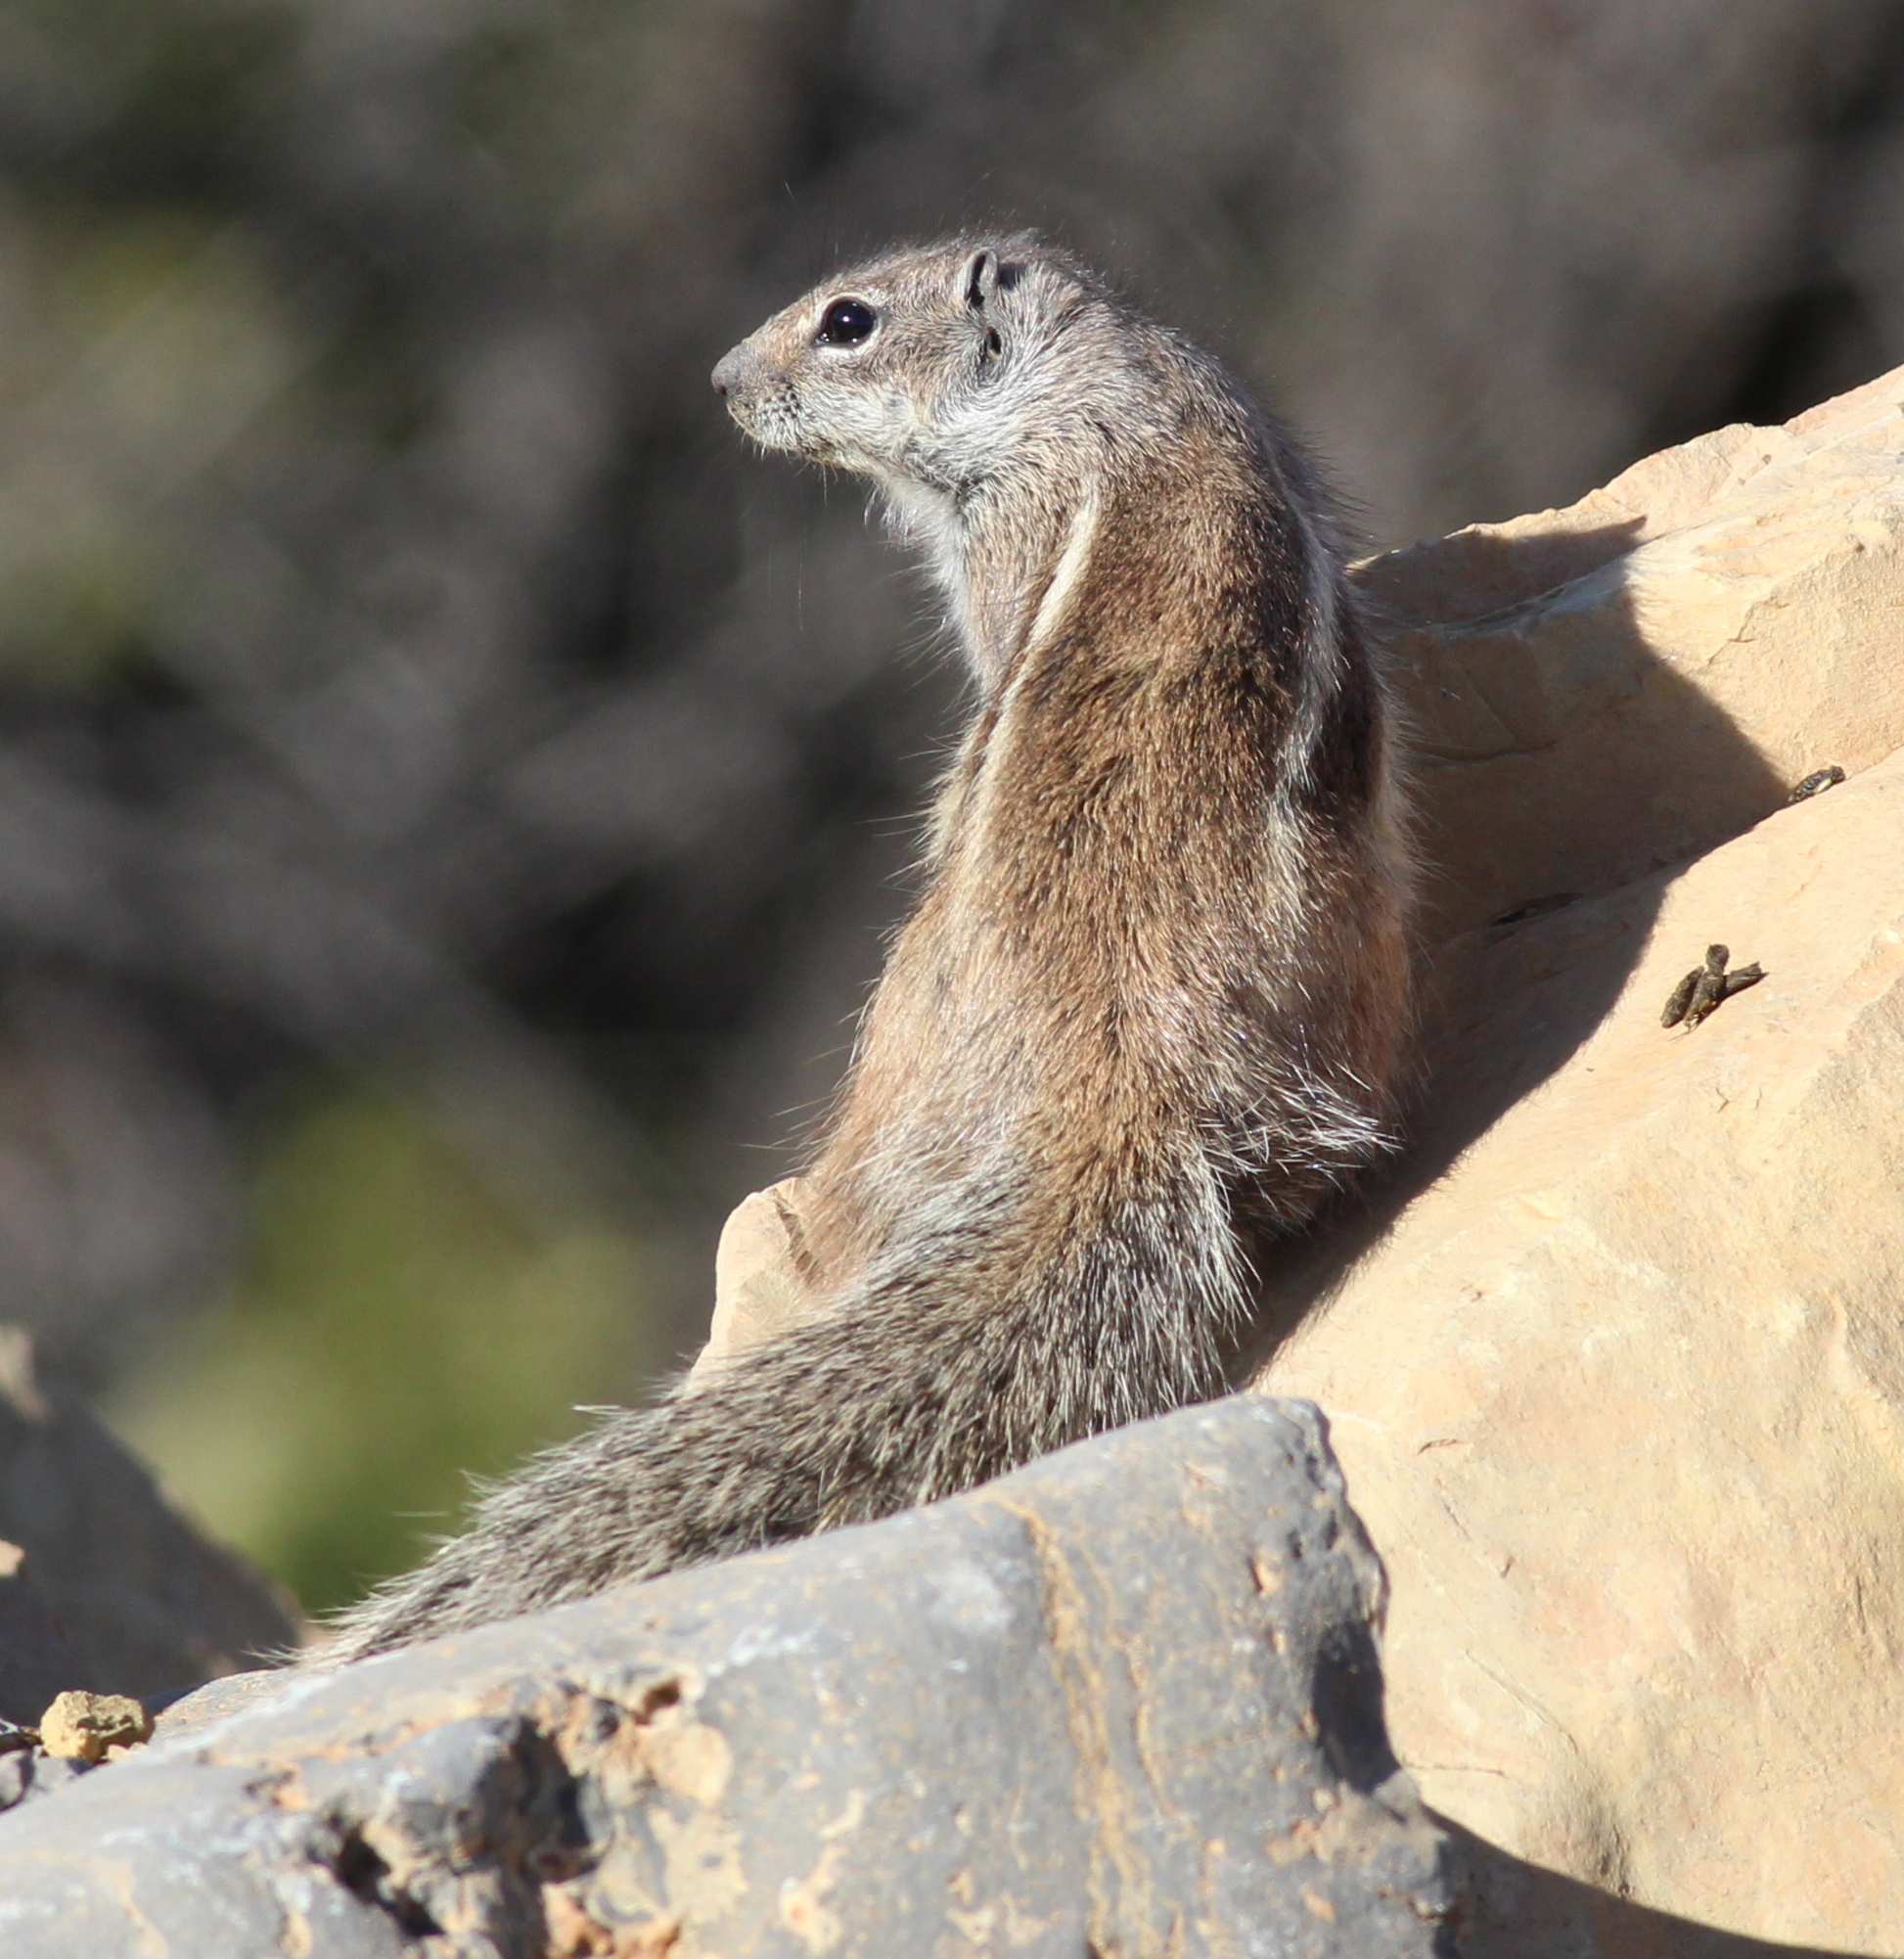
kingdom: Animalia
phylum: Chordata
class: Mammalia
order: Rodentia
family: Sciuridae
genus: Atlantoxerus
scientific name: Atlantoxerus getulus
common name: Barbary ground squirrel
